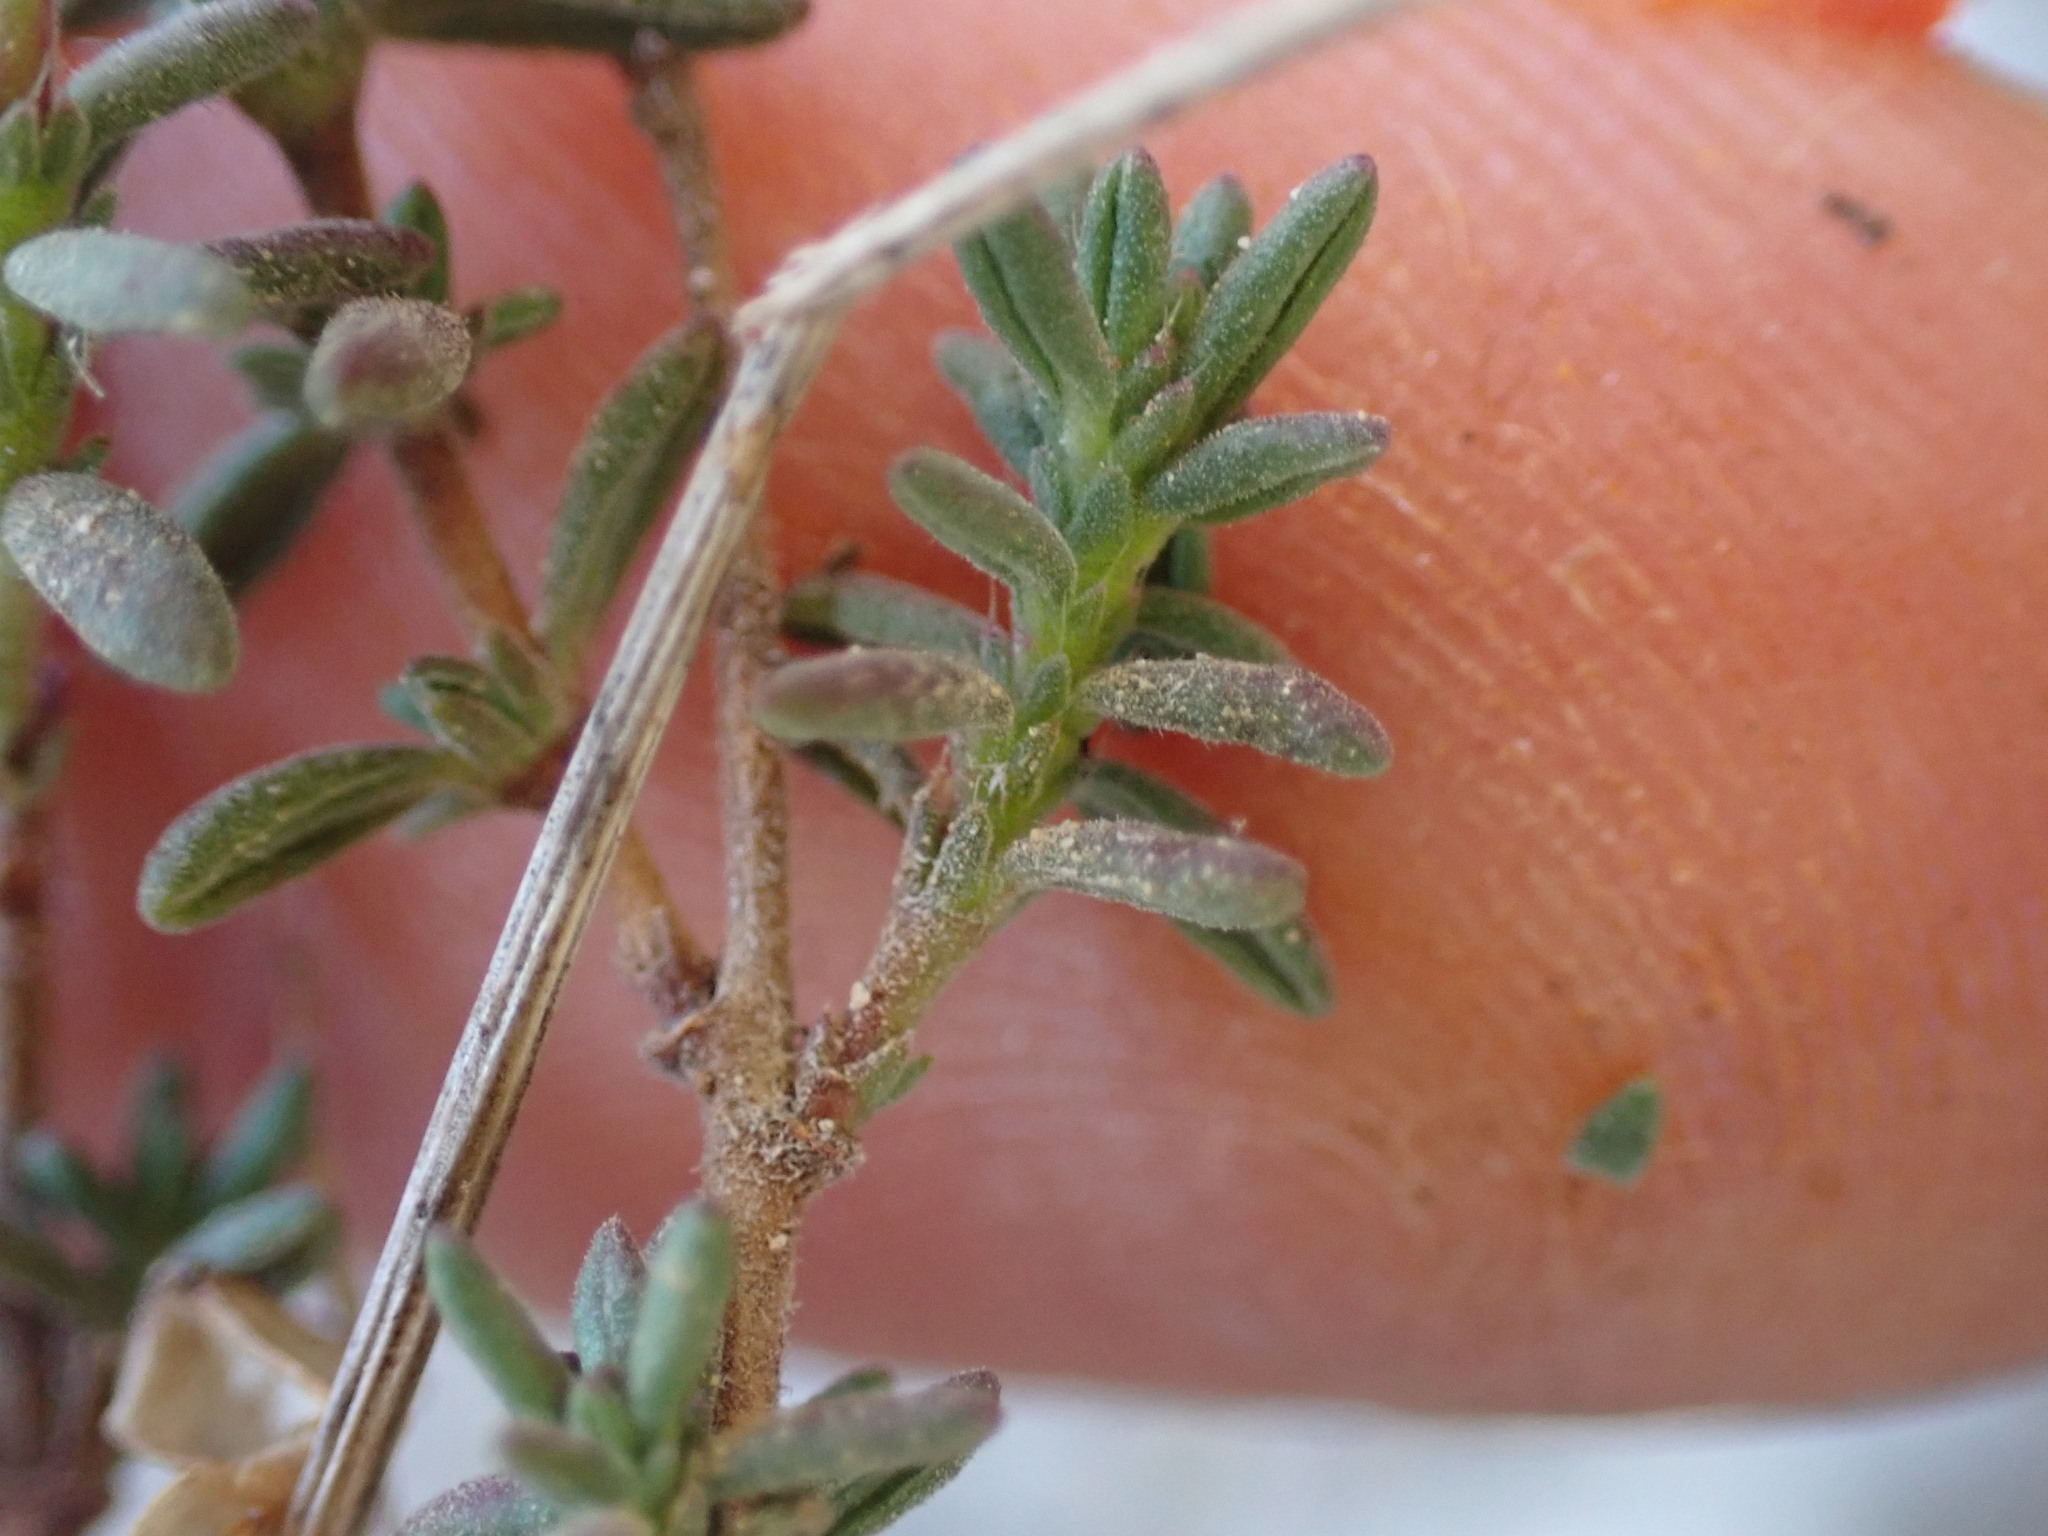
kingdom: Plantae
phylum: Tracheophyta
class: Magnoliopsida
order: Malvales
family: Cistaceae
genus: Fumana
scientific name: Fumana thymifolia
